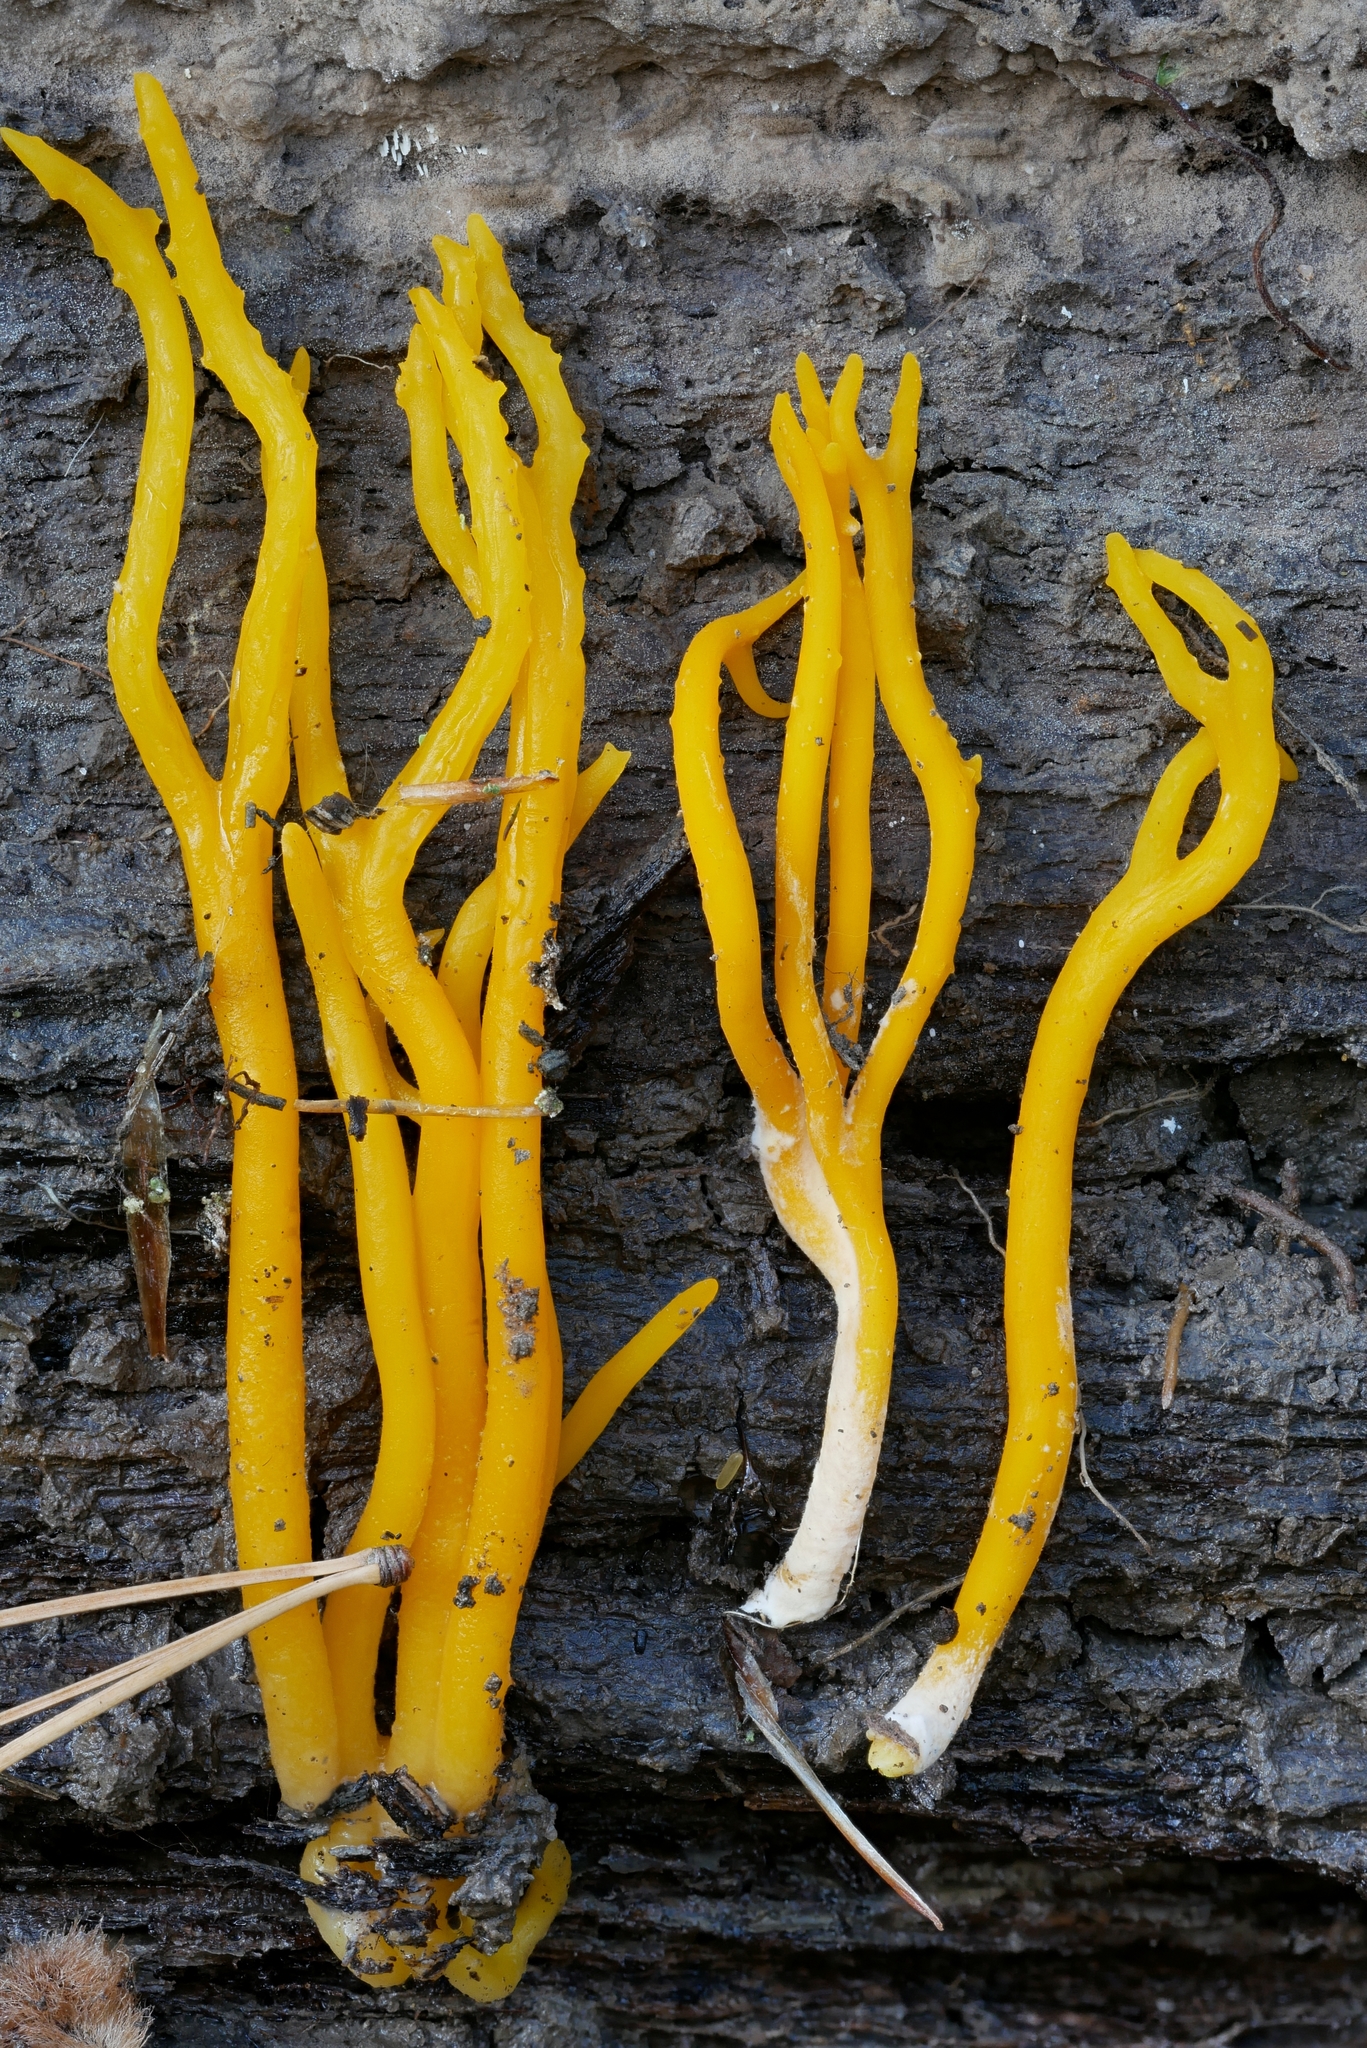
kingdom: Fungi
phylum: Basidiomycota
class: Dacrymycetes
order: Dacrymycetales
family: Dacrymycetaceae
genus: Calocera
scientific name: Calocera viscosa
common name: Yellow stagshorn
